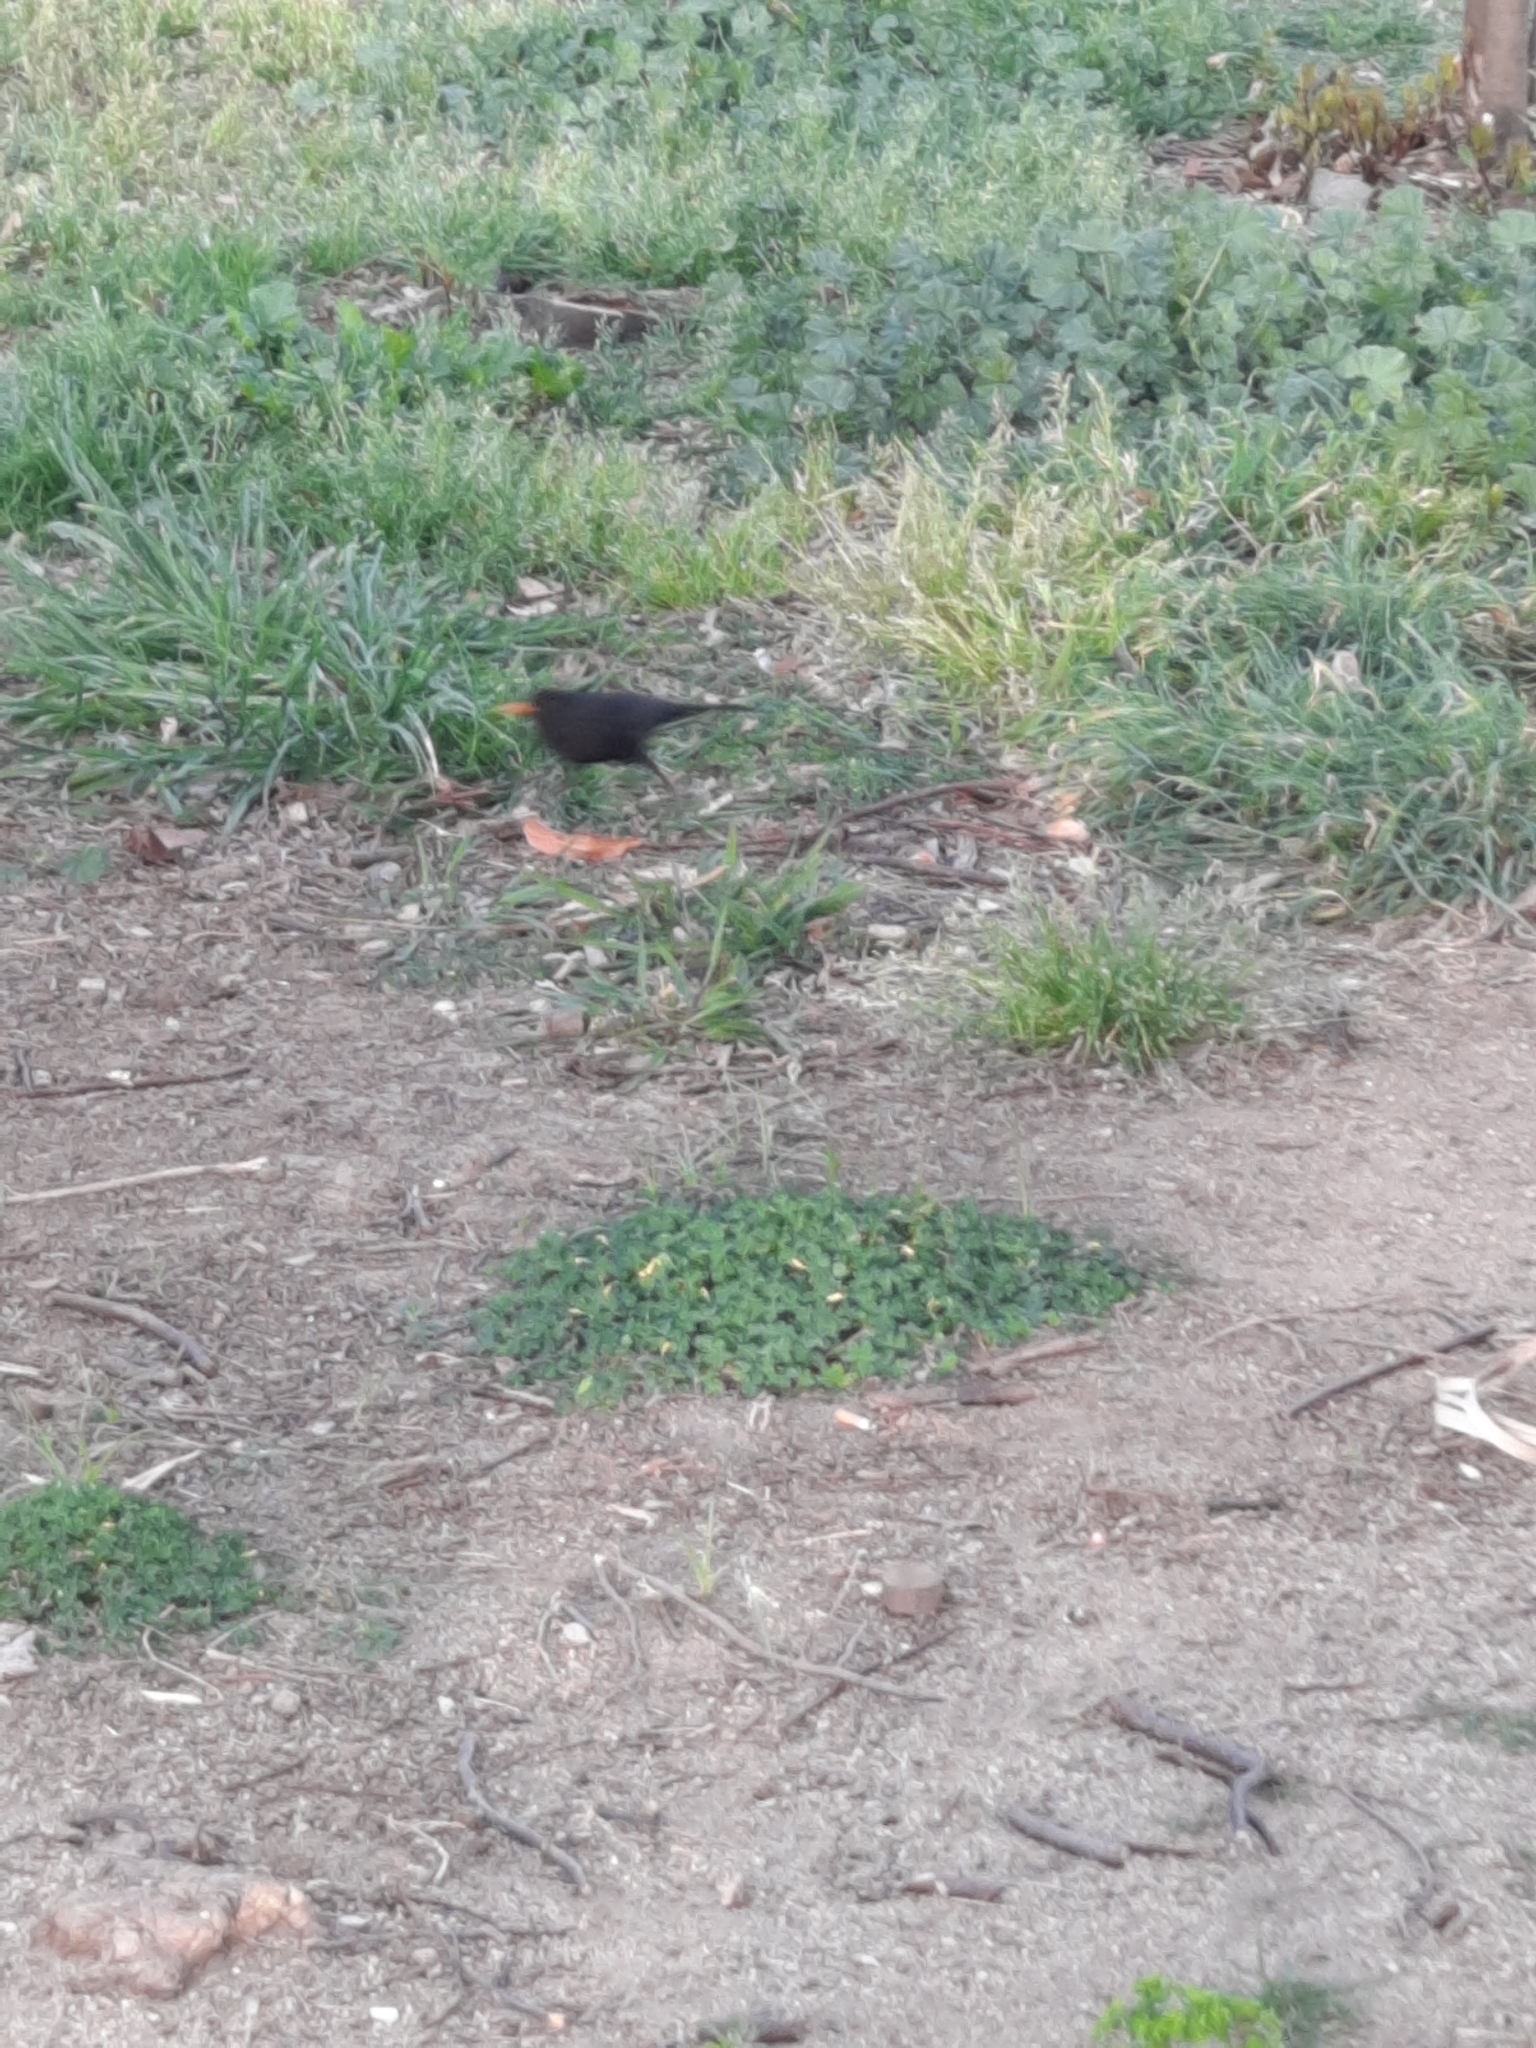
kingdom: Animalia
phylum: Chordata
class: Aves
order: Passeriformes
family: Turdidae
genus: Turdus
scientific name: Turdus merula
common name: Common blackbird
